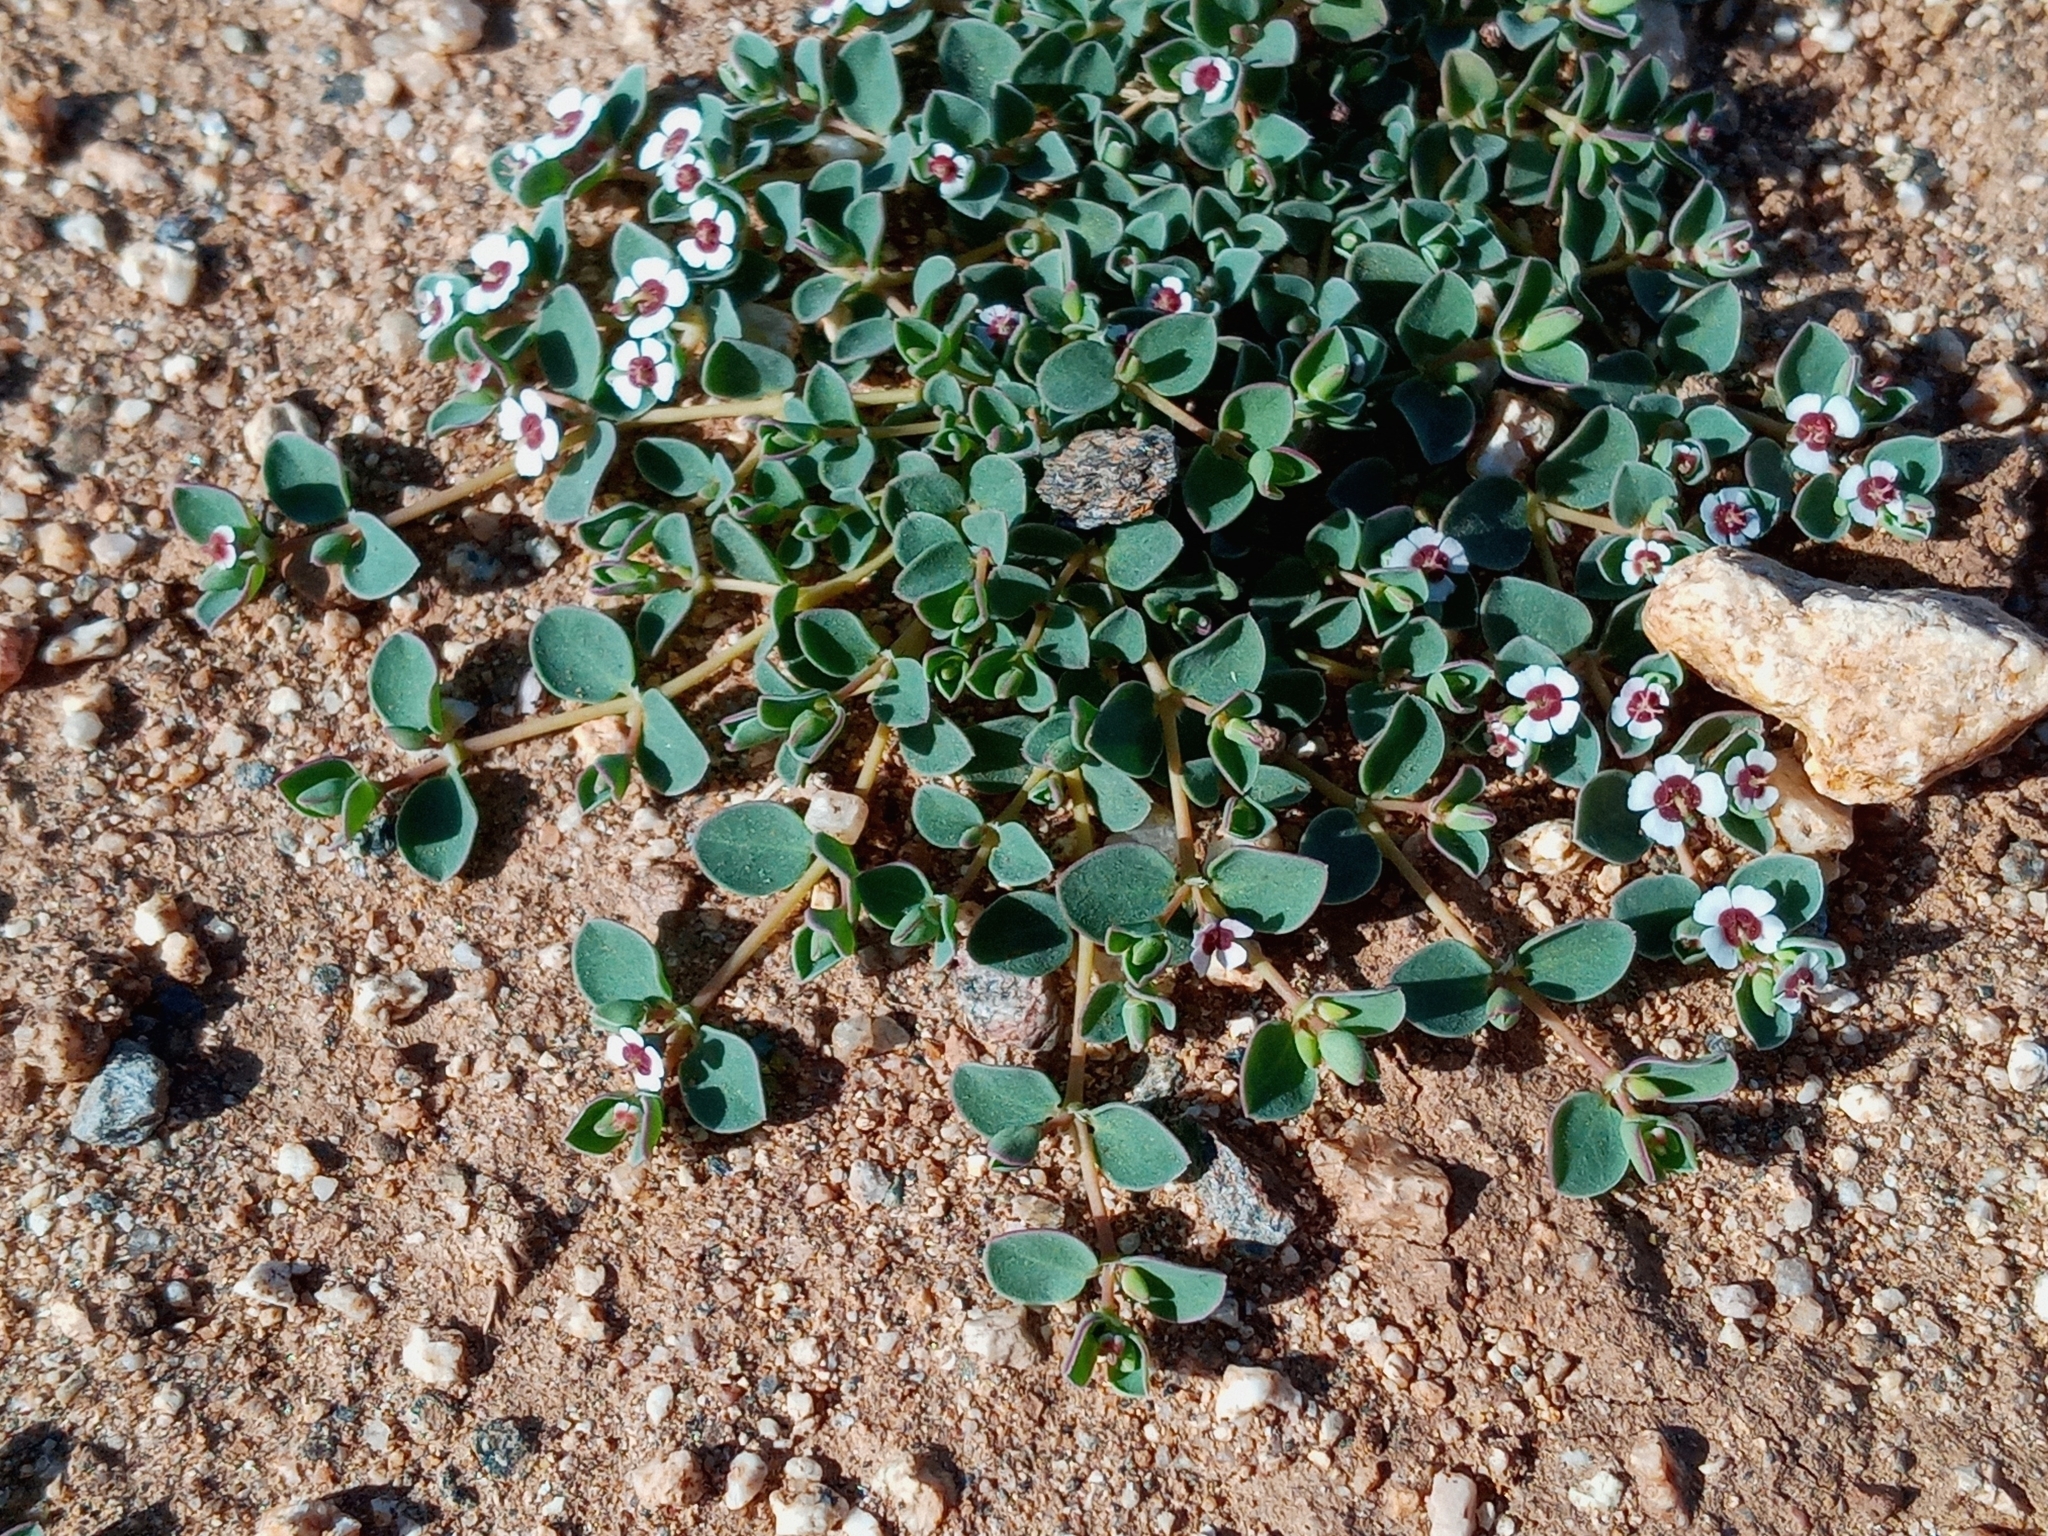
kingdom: Plantae
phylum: Tracheophyta
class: Magnoliopsida
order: Malpighiales
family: Euphorbiaceae
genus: Euphorbia
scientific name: Euphorbia albomarginata
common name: Whitemargin sandmat
